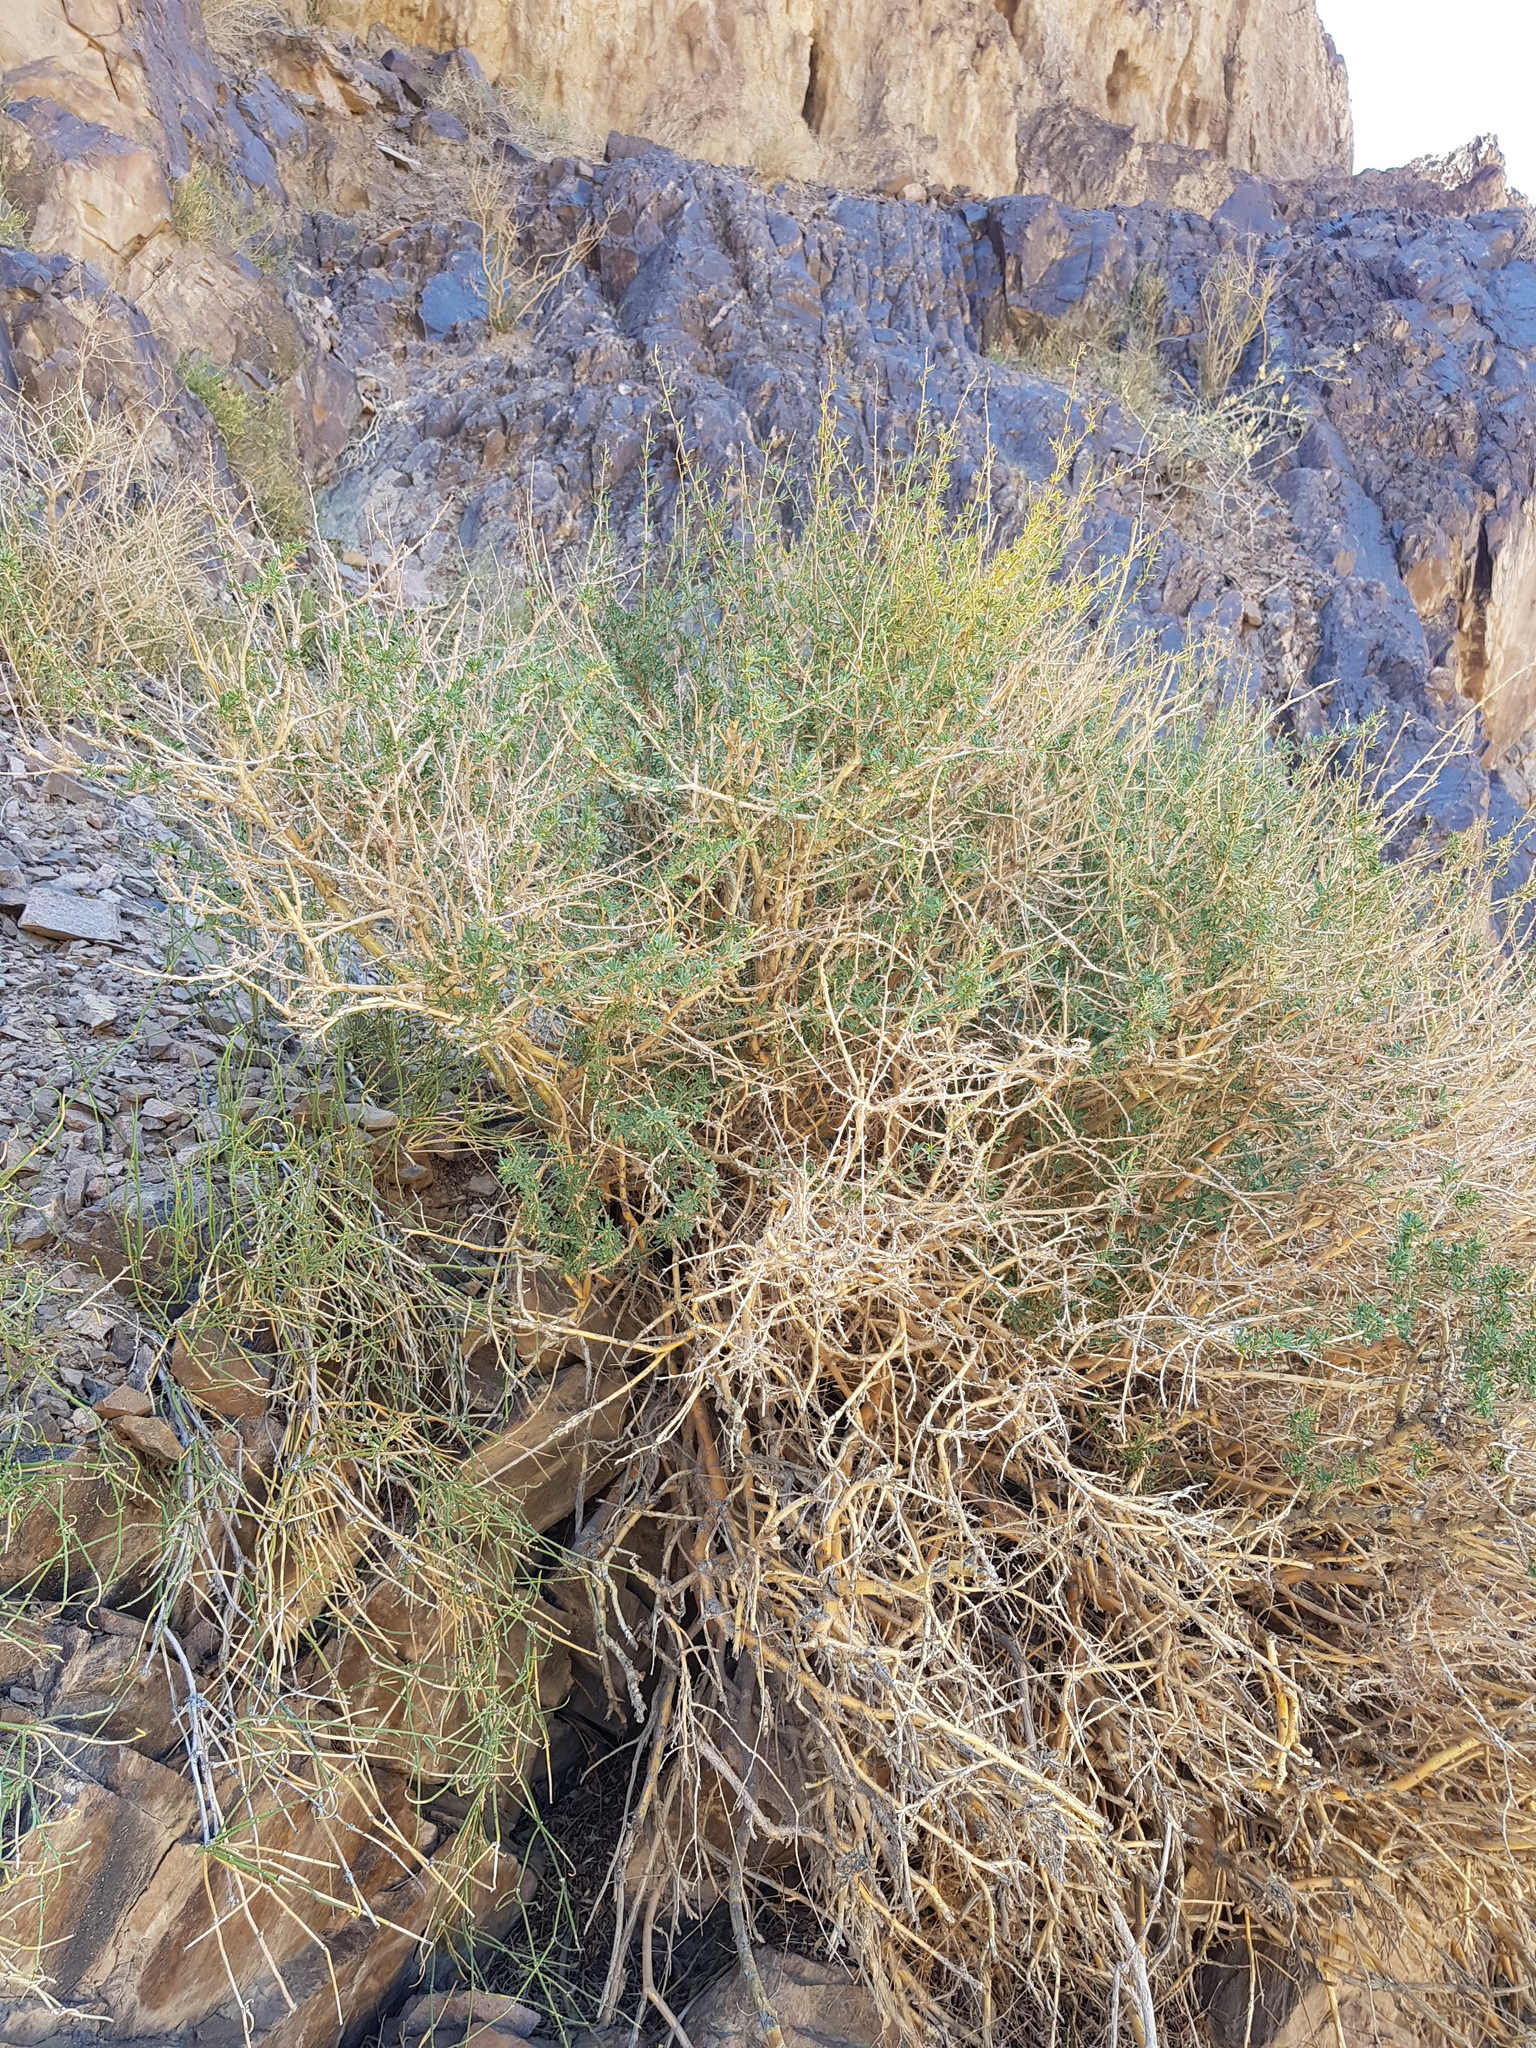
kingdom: Plantae
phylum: Tracheophyta
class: Magnoliopsida
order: Fabales
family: Fabaceae
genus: Caragana
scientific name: Caragana leucophloea
